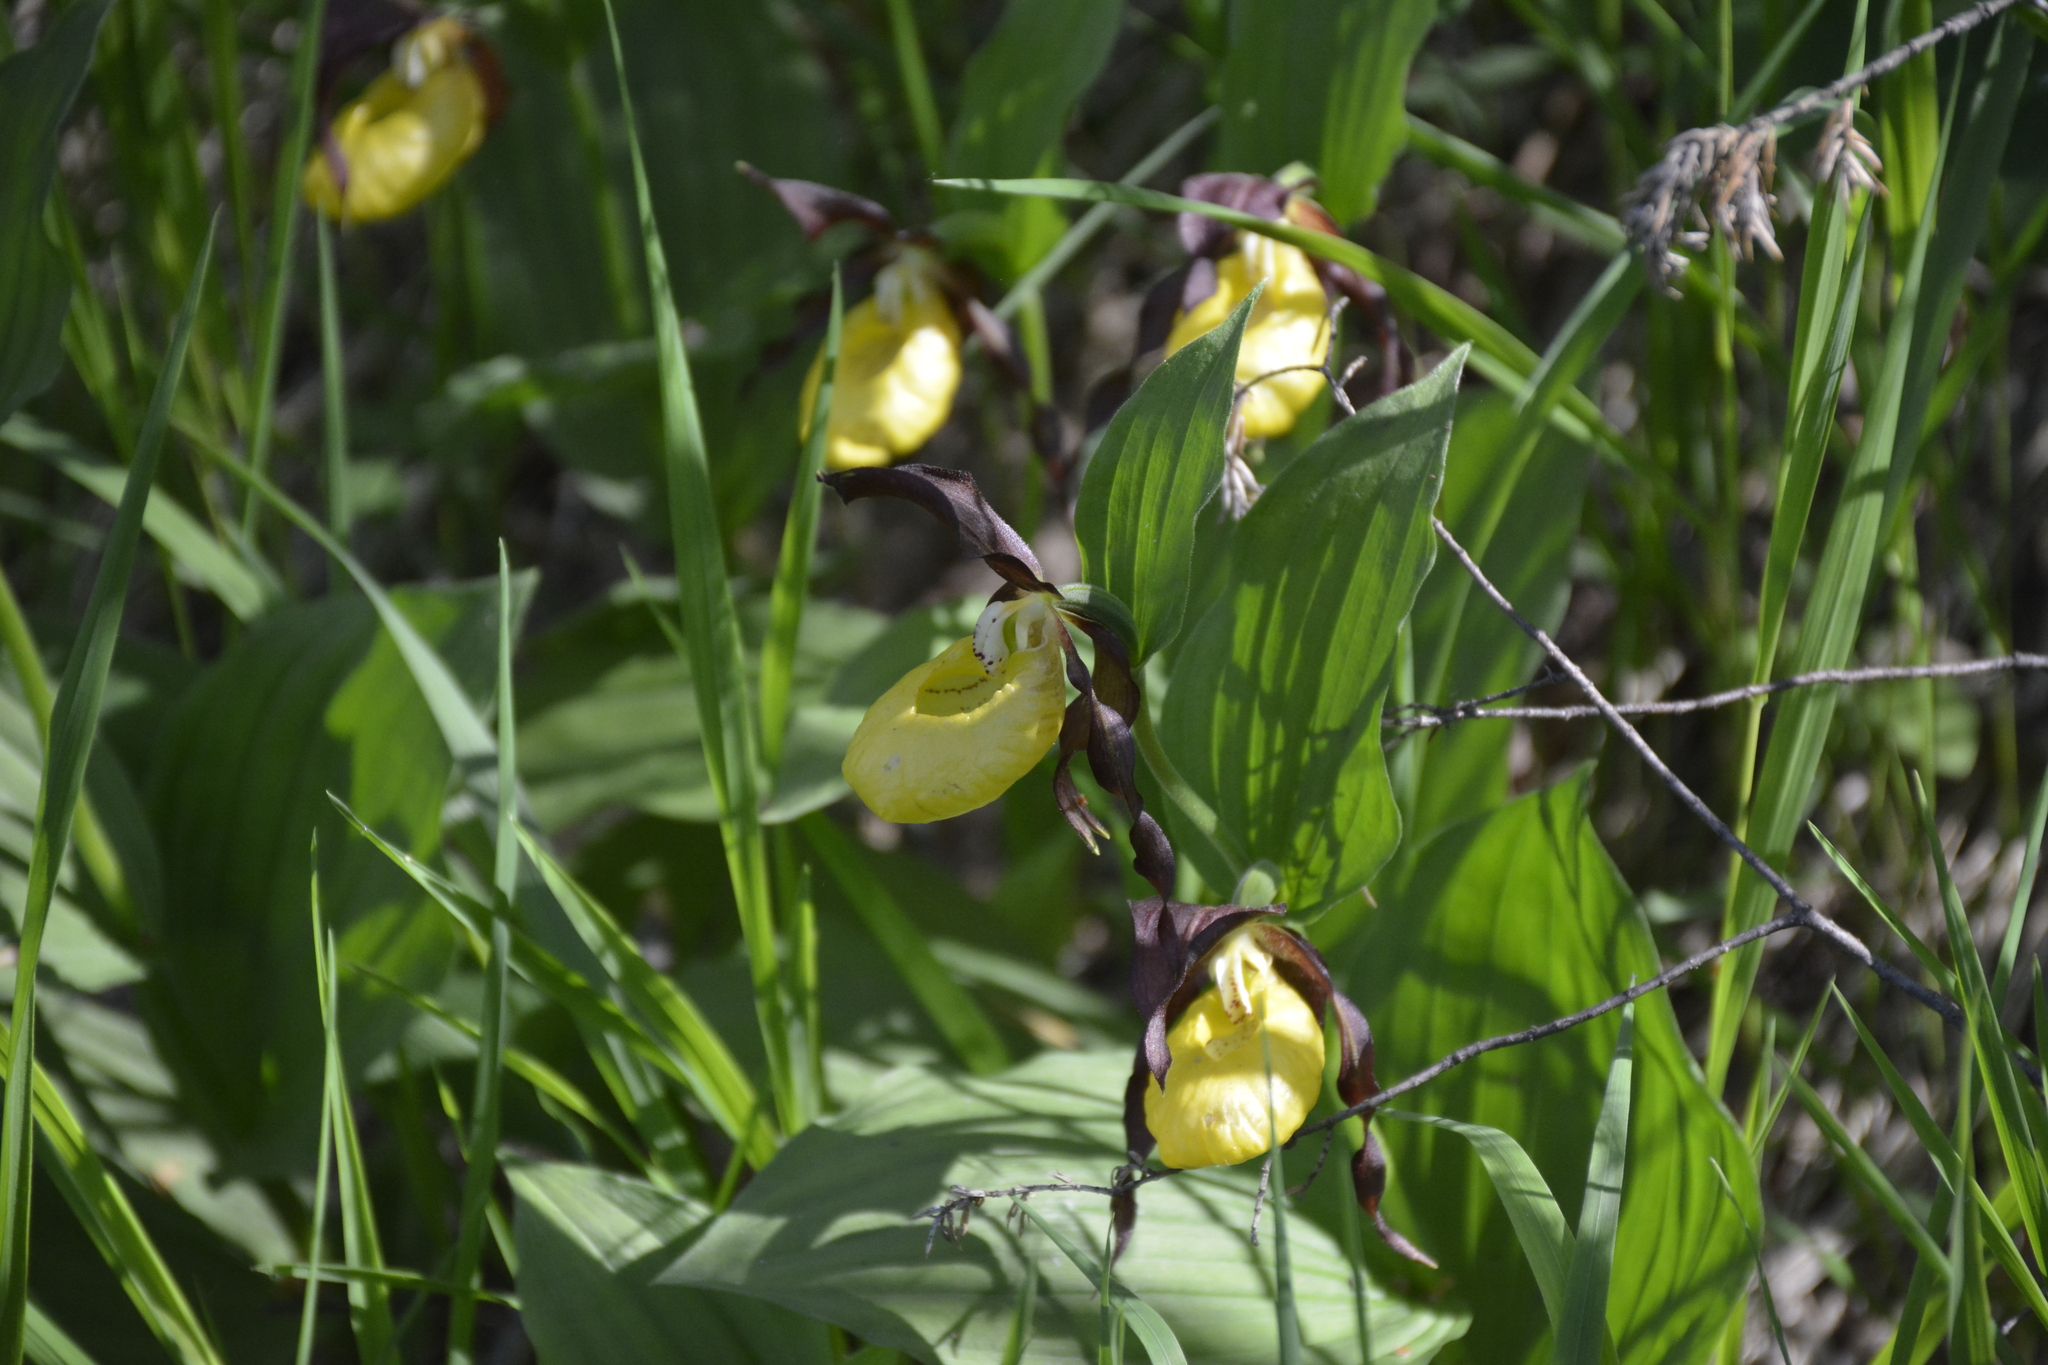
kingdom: Plantae
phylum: Tracheophyta
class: Liliopsida
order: Asparagales
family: Orchidaceae
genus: Cypripedium
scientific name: Cypripedium calceolus
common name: Lady's-slipper
